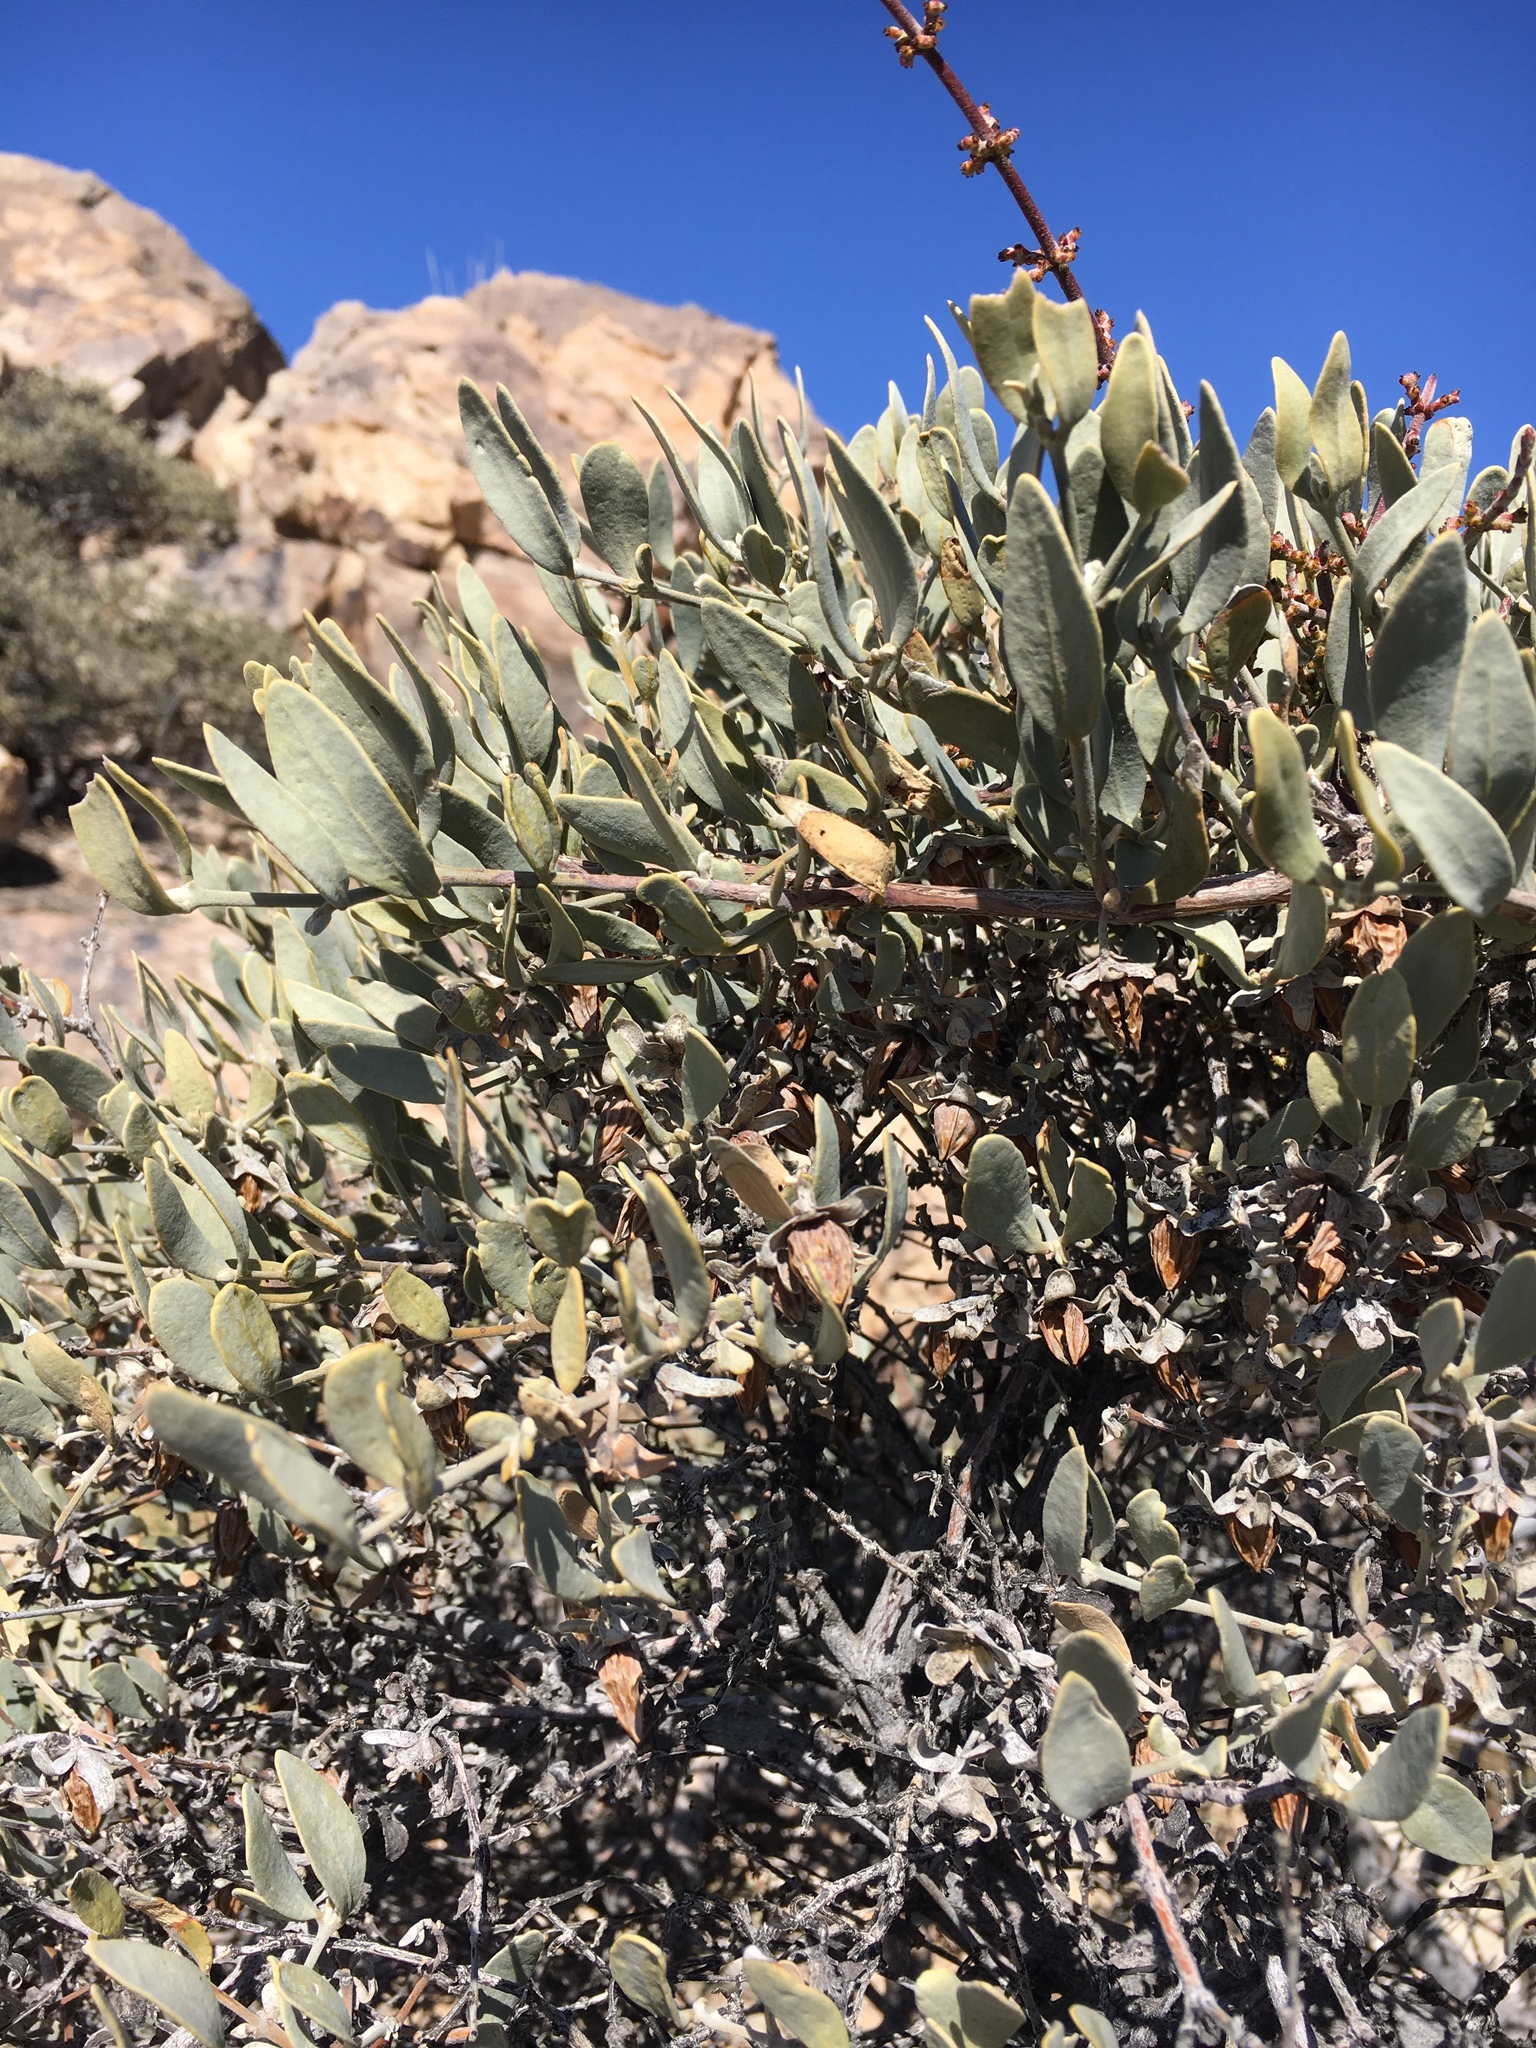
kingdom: Plantae
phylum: Tracheophyta
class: Magnoliopsida
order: Caryophyllales
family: Simmondsiaceae
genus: Simmondsia
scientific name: Simmondsia chinensis
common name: Jojoba
